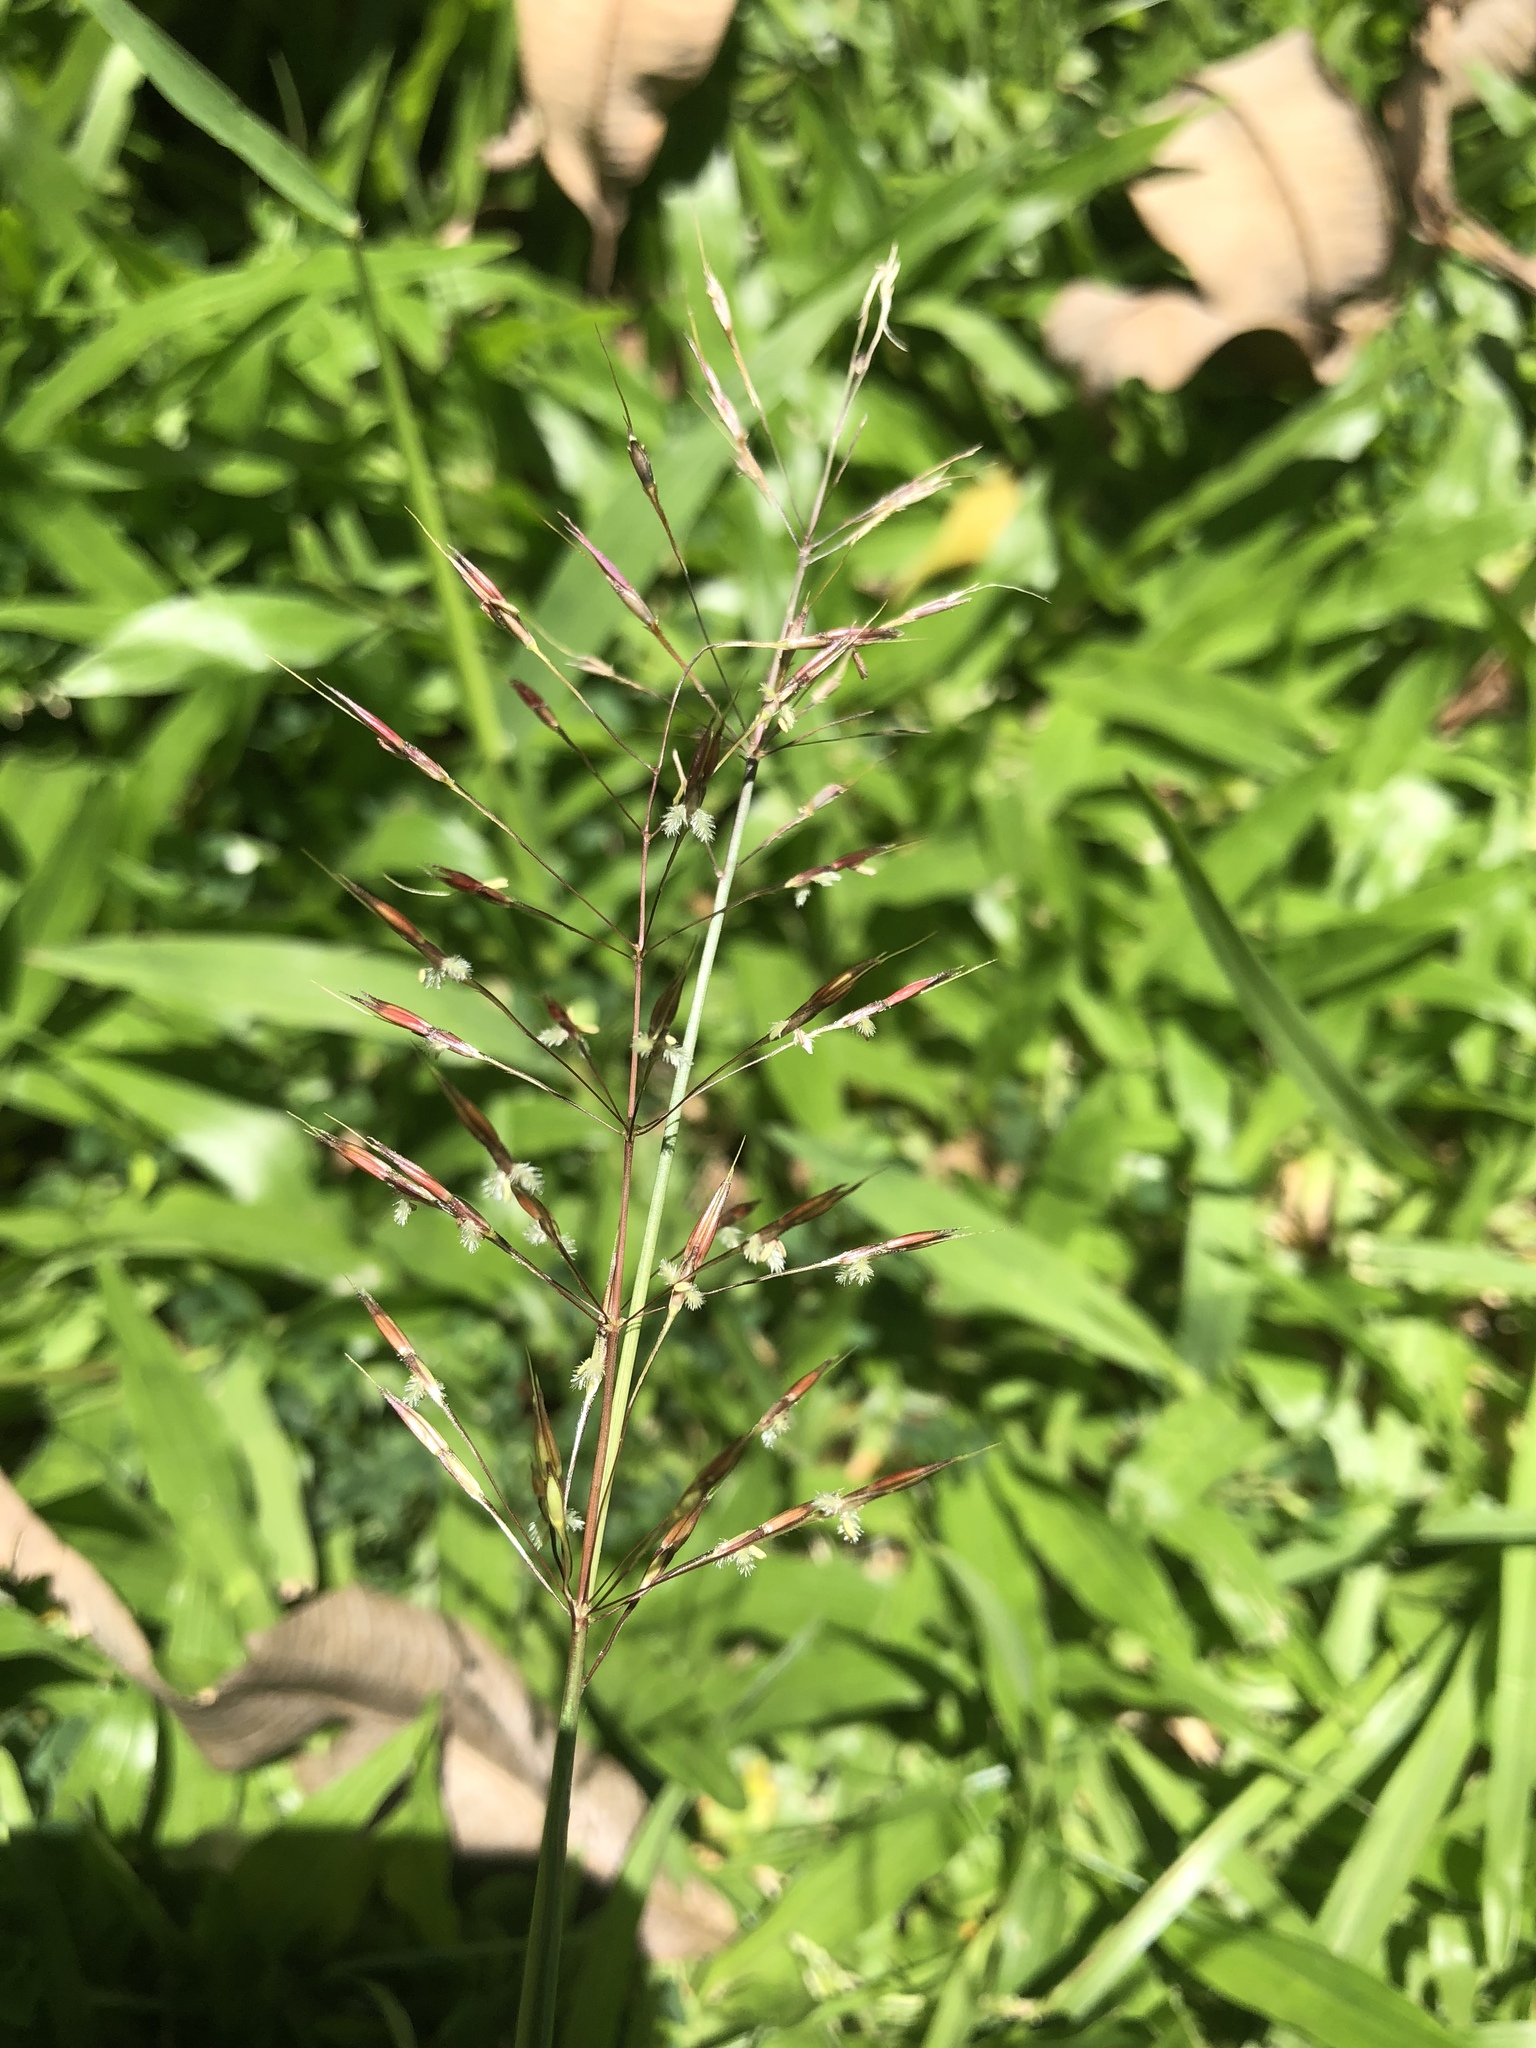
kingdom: Plantae
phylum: Tracheophyta
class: Liliopsida
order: Poales
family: Poaceae
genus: Chrysopogon
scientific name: Chrysopogon aciculatus
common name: Pilipiliula
